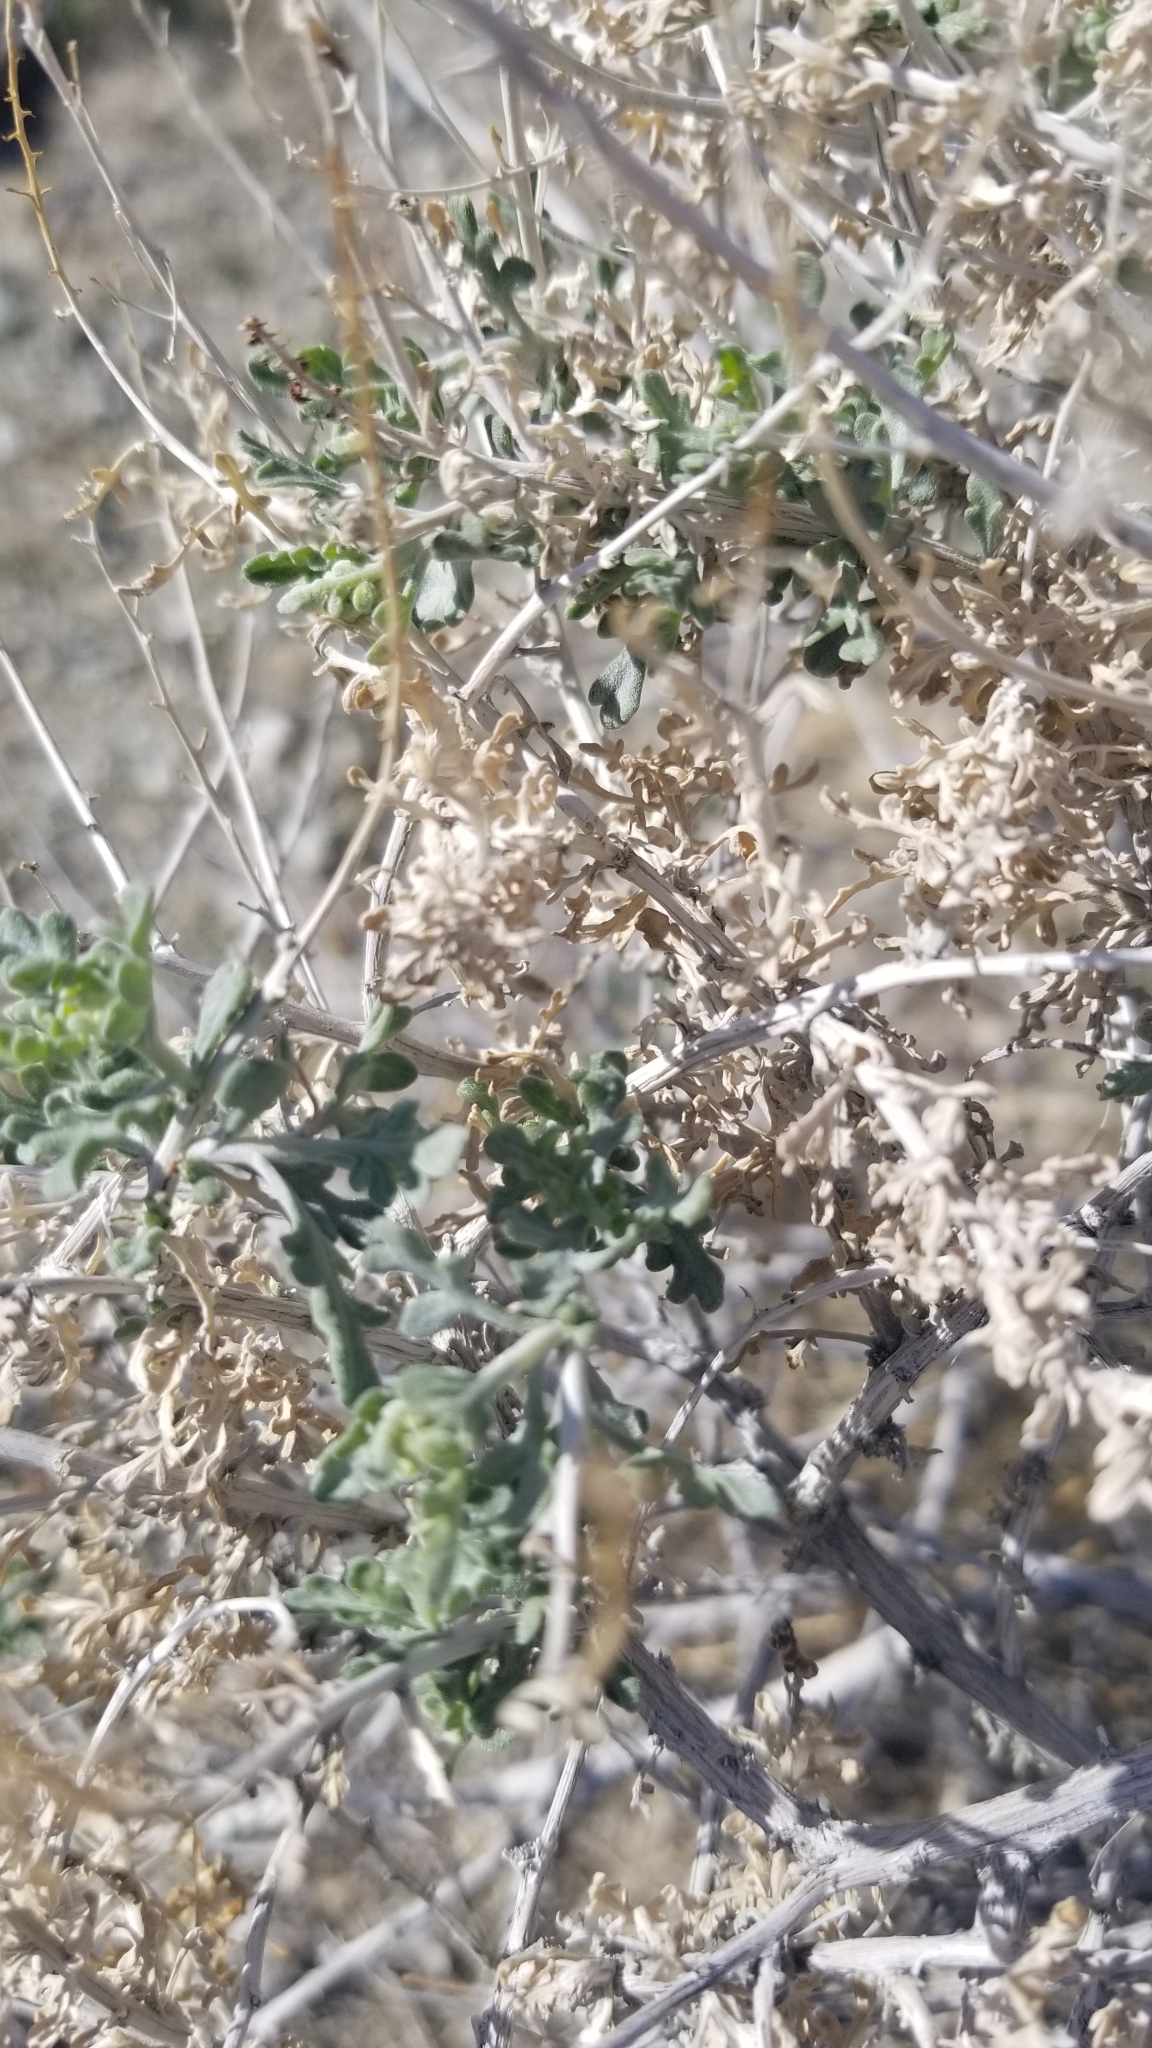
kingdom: Plantae
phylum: Tracheophyta
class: Magnoliopsida
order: Asterales
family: Asteraceae
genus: Ambrosia
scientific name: Ambrosia dumosa
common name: Bur-sage
